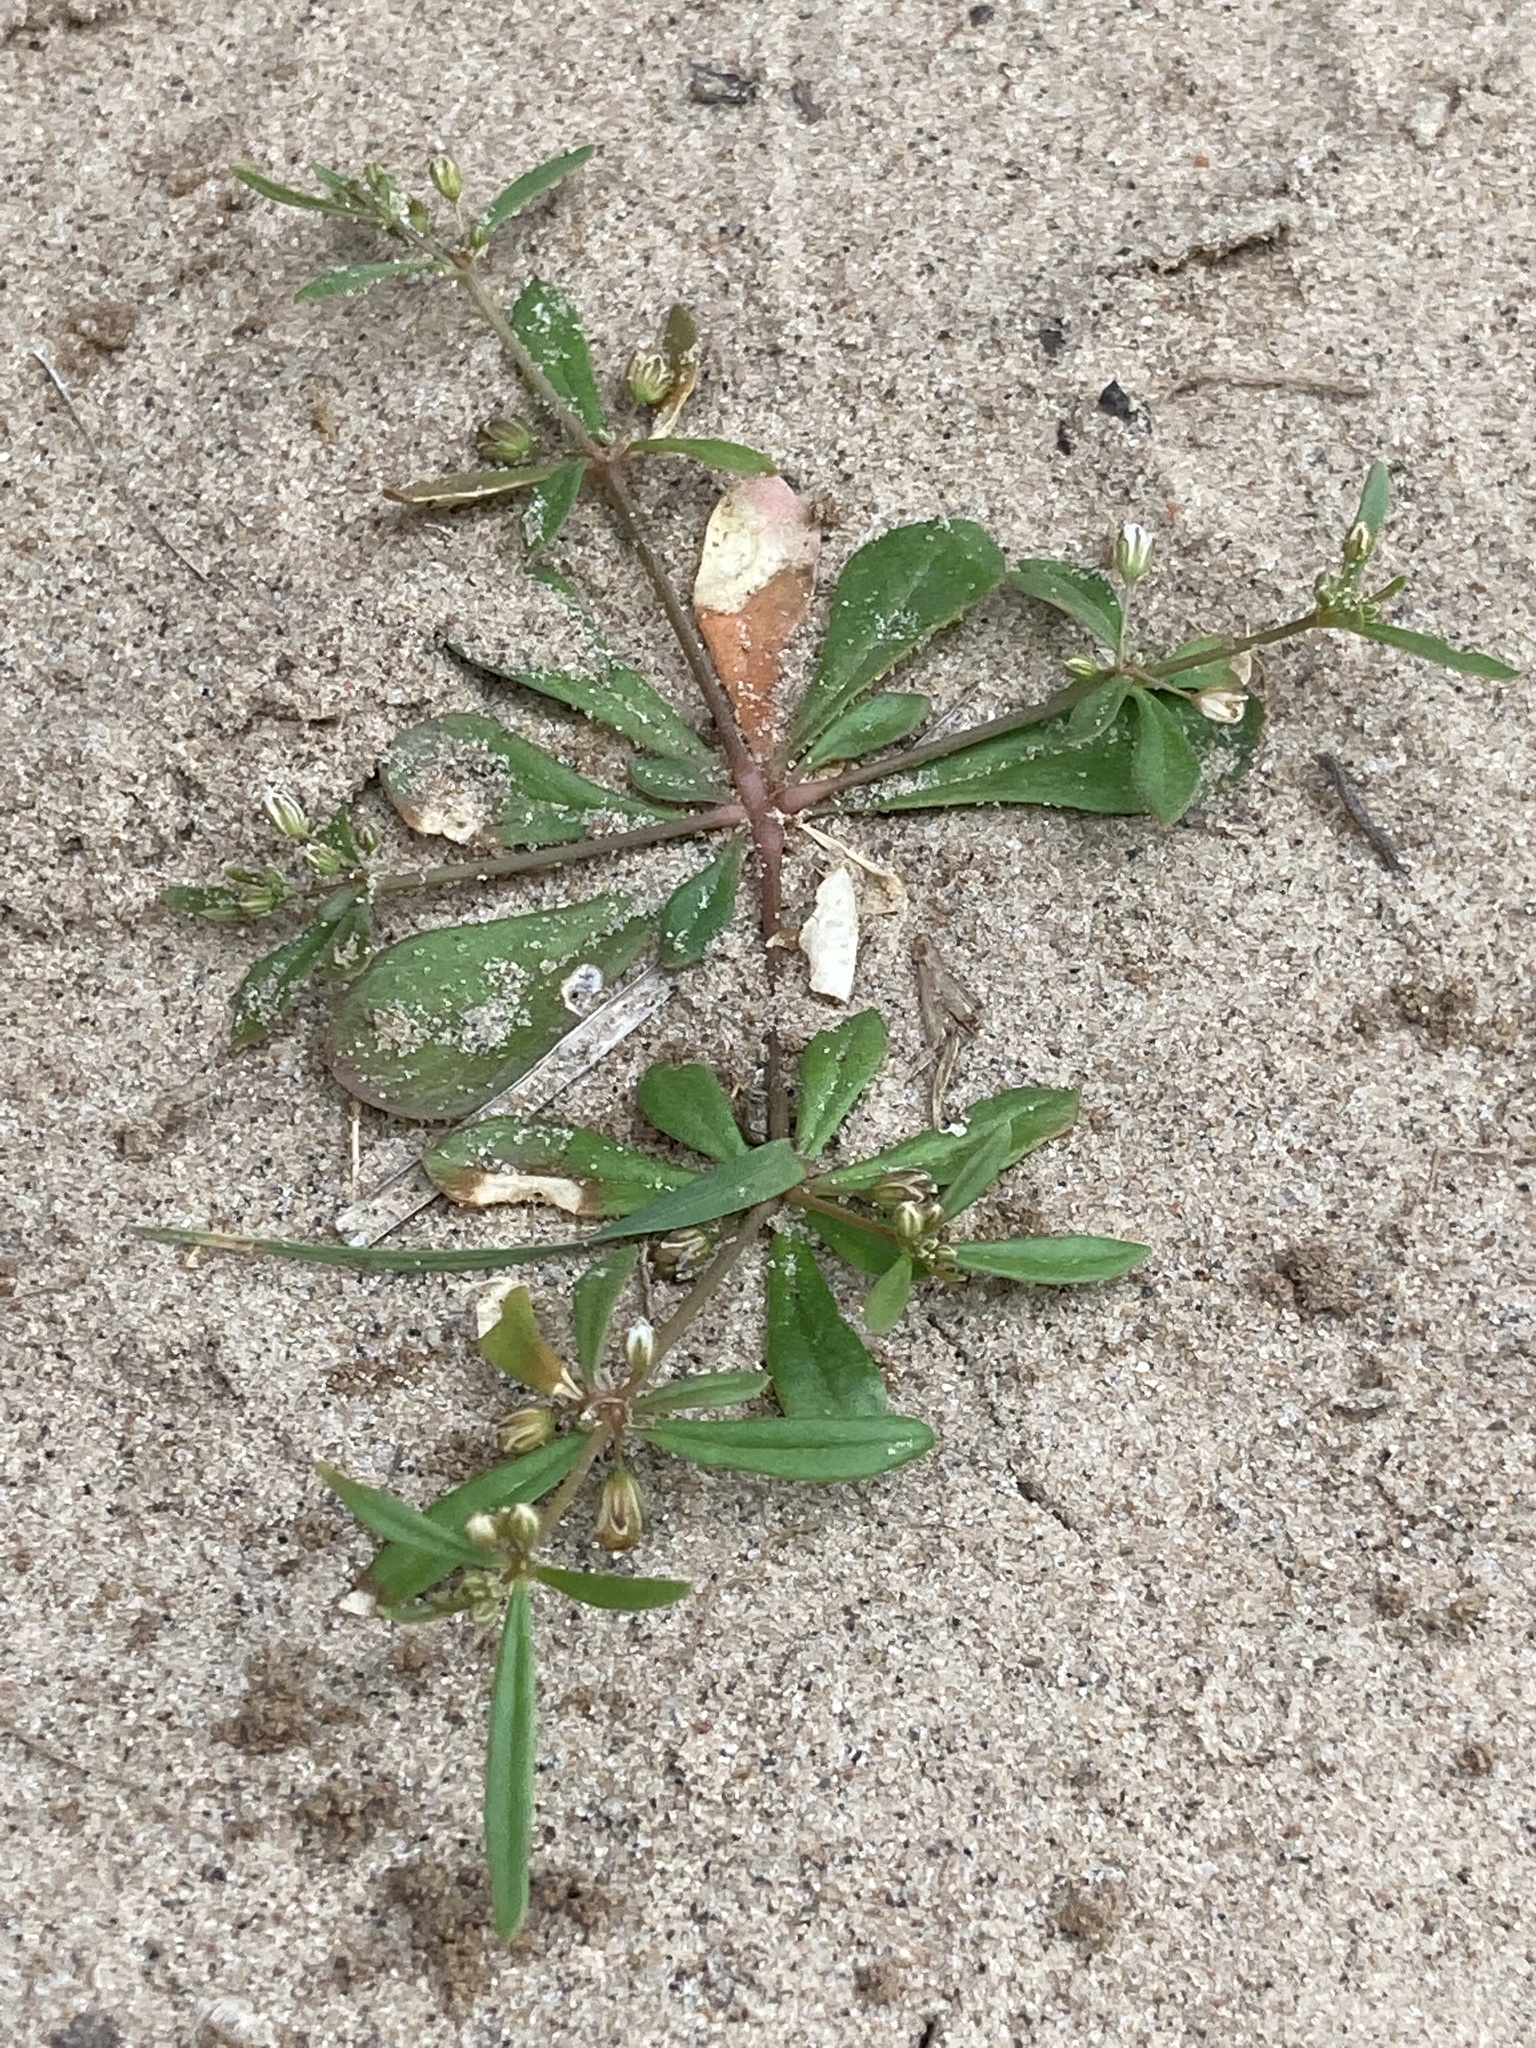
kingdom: Plantae
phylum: Tracheophyta
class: Magnoliopsida
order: Caryophyllales
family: Molluginaceae
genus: Mollugo
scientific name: Mollugo verticillata
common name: Green carpetweed
